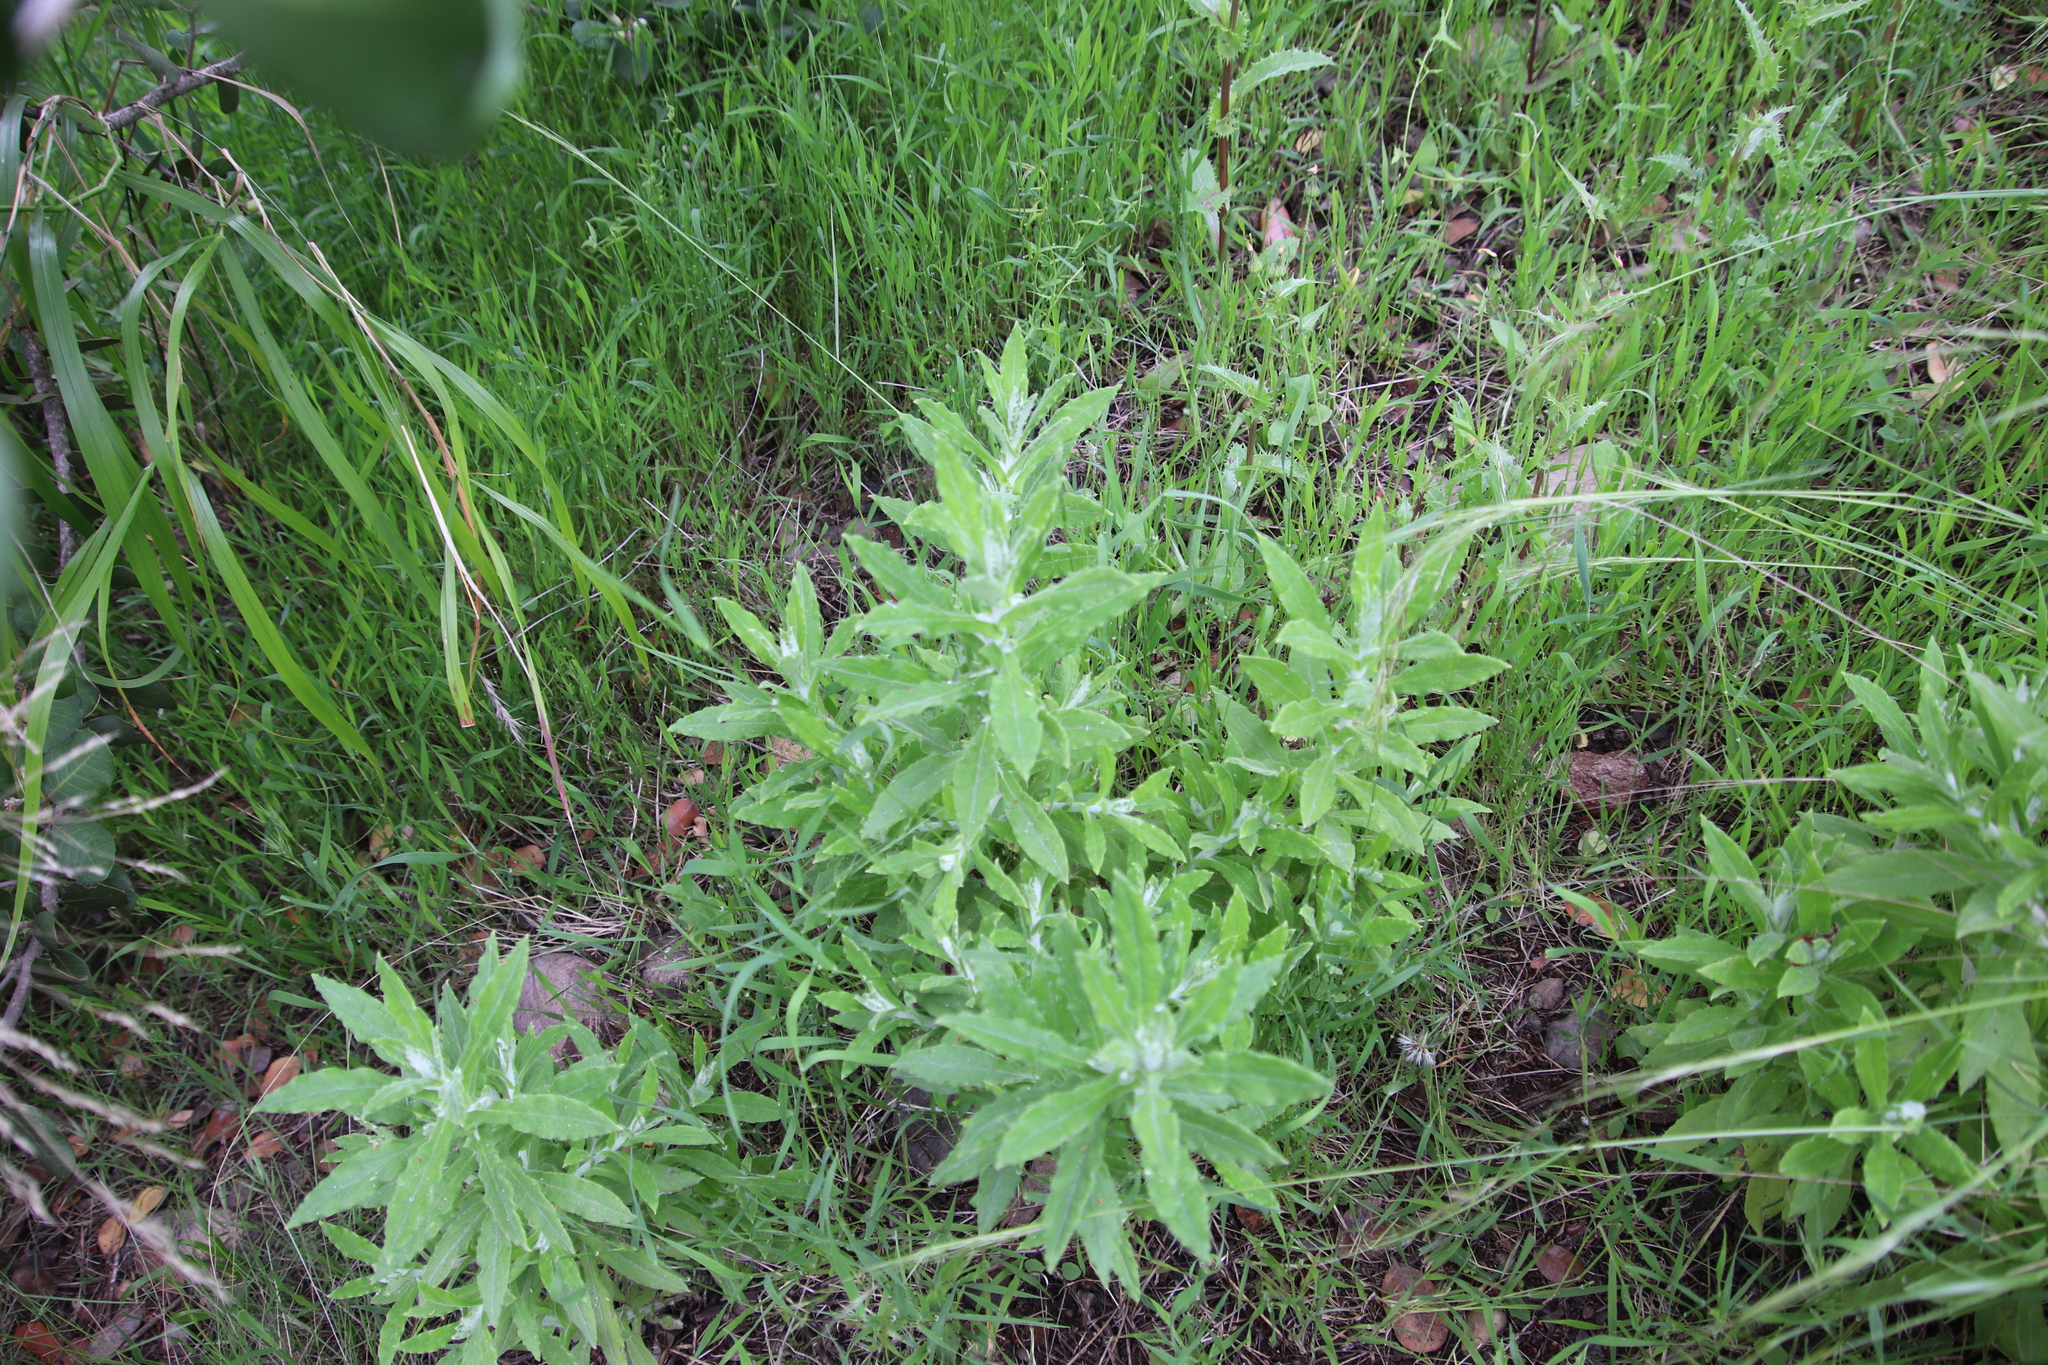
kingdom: Plantae
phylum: Tracheophyta
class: Magnoliopsida
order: Asterales
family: Asteraceae
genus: Pseudognaphalium
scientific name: Pseudognaphalium biolettii
